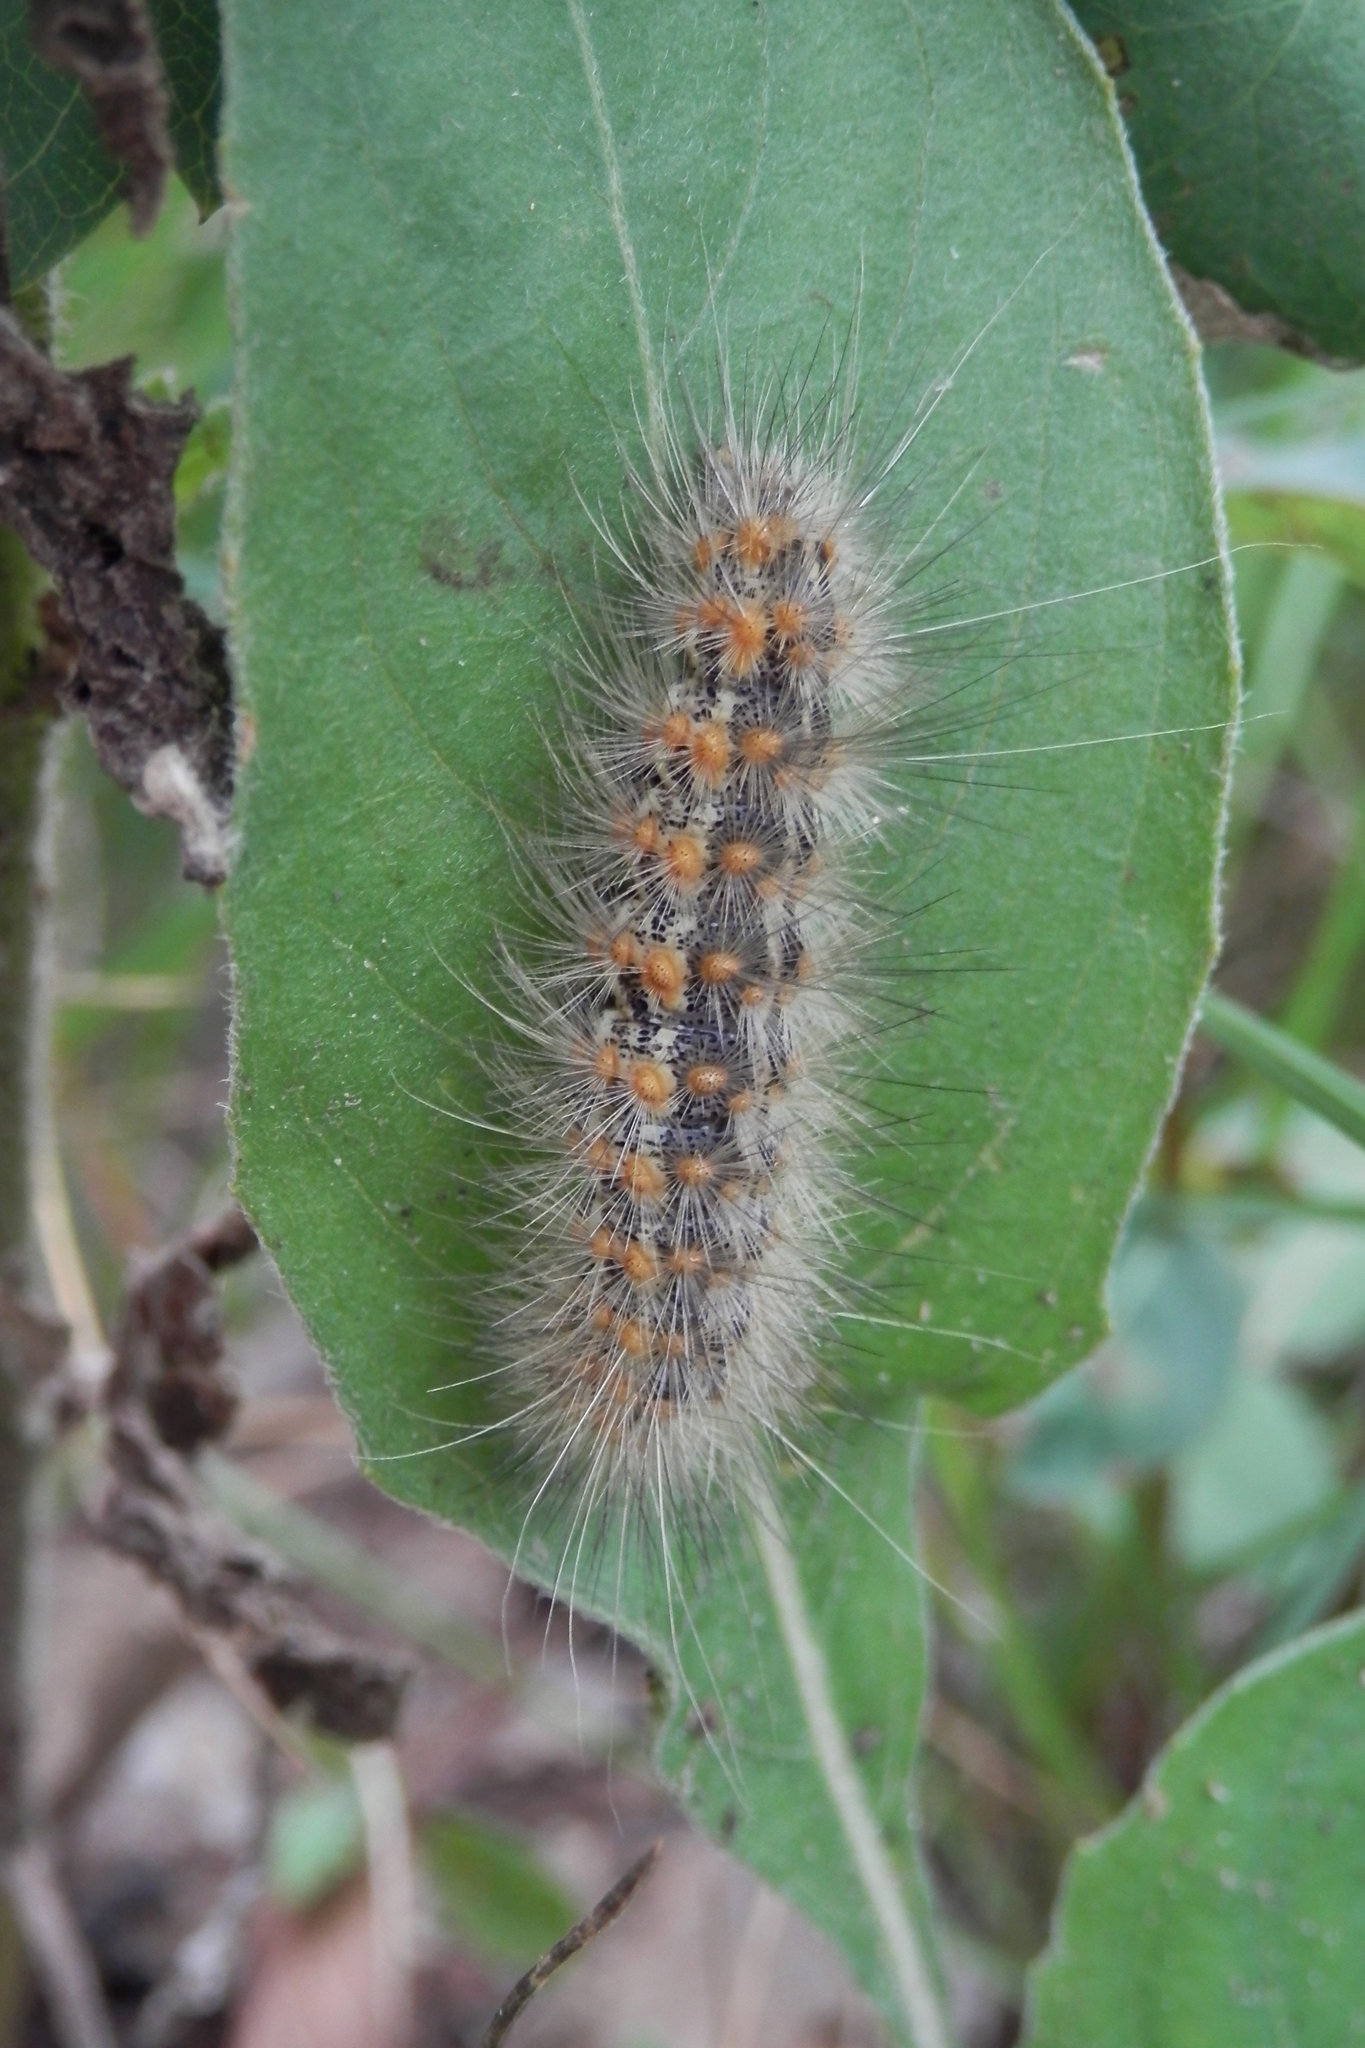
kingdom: Animalia
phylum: Arthropoda
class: Insecta
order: Lepidoptera
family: Erebidae
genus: Estigmene
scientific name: Estigmene acrea
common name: Salt marsh moth
